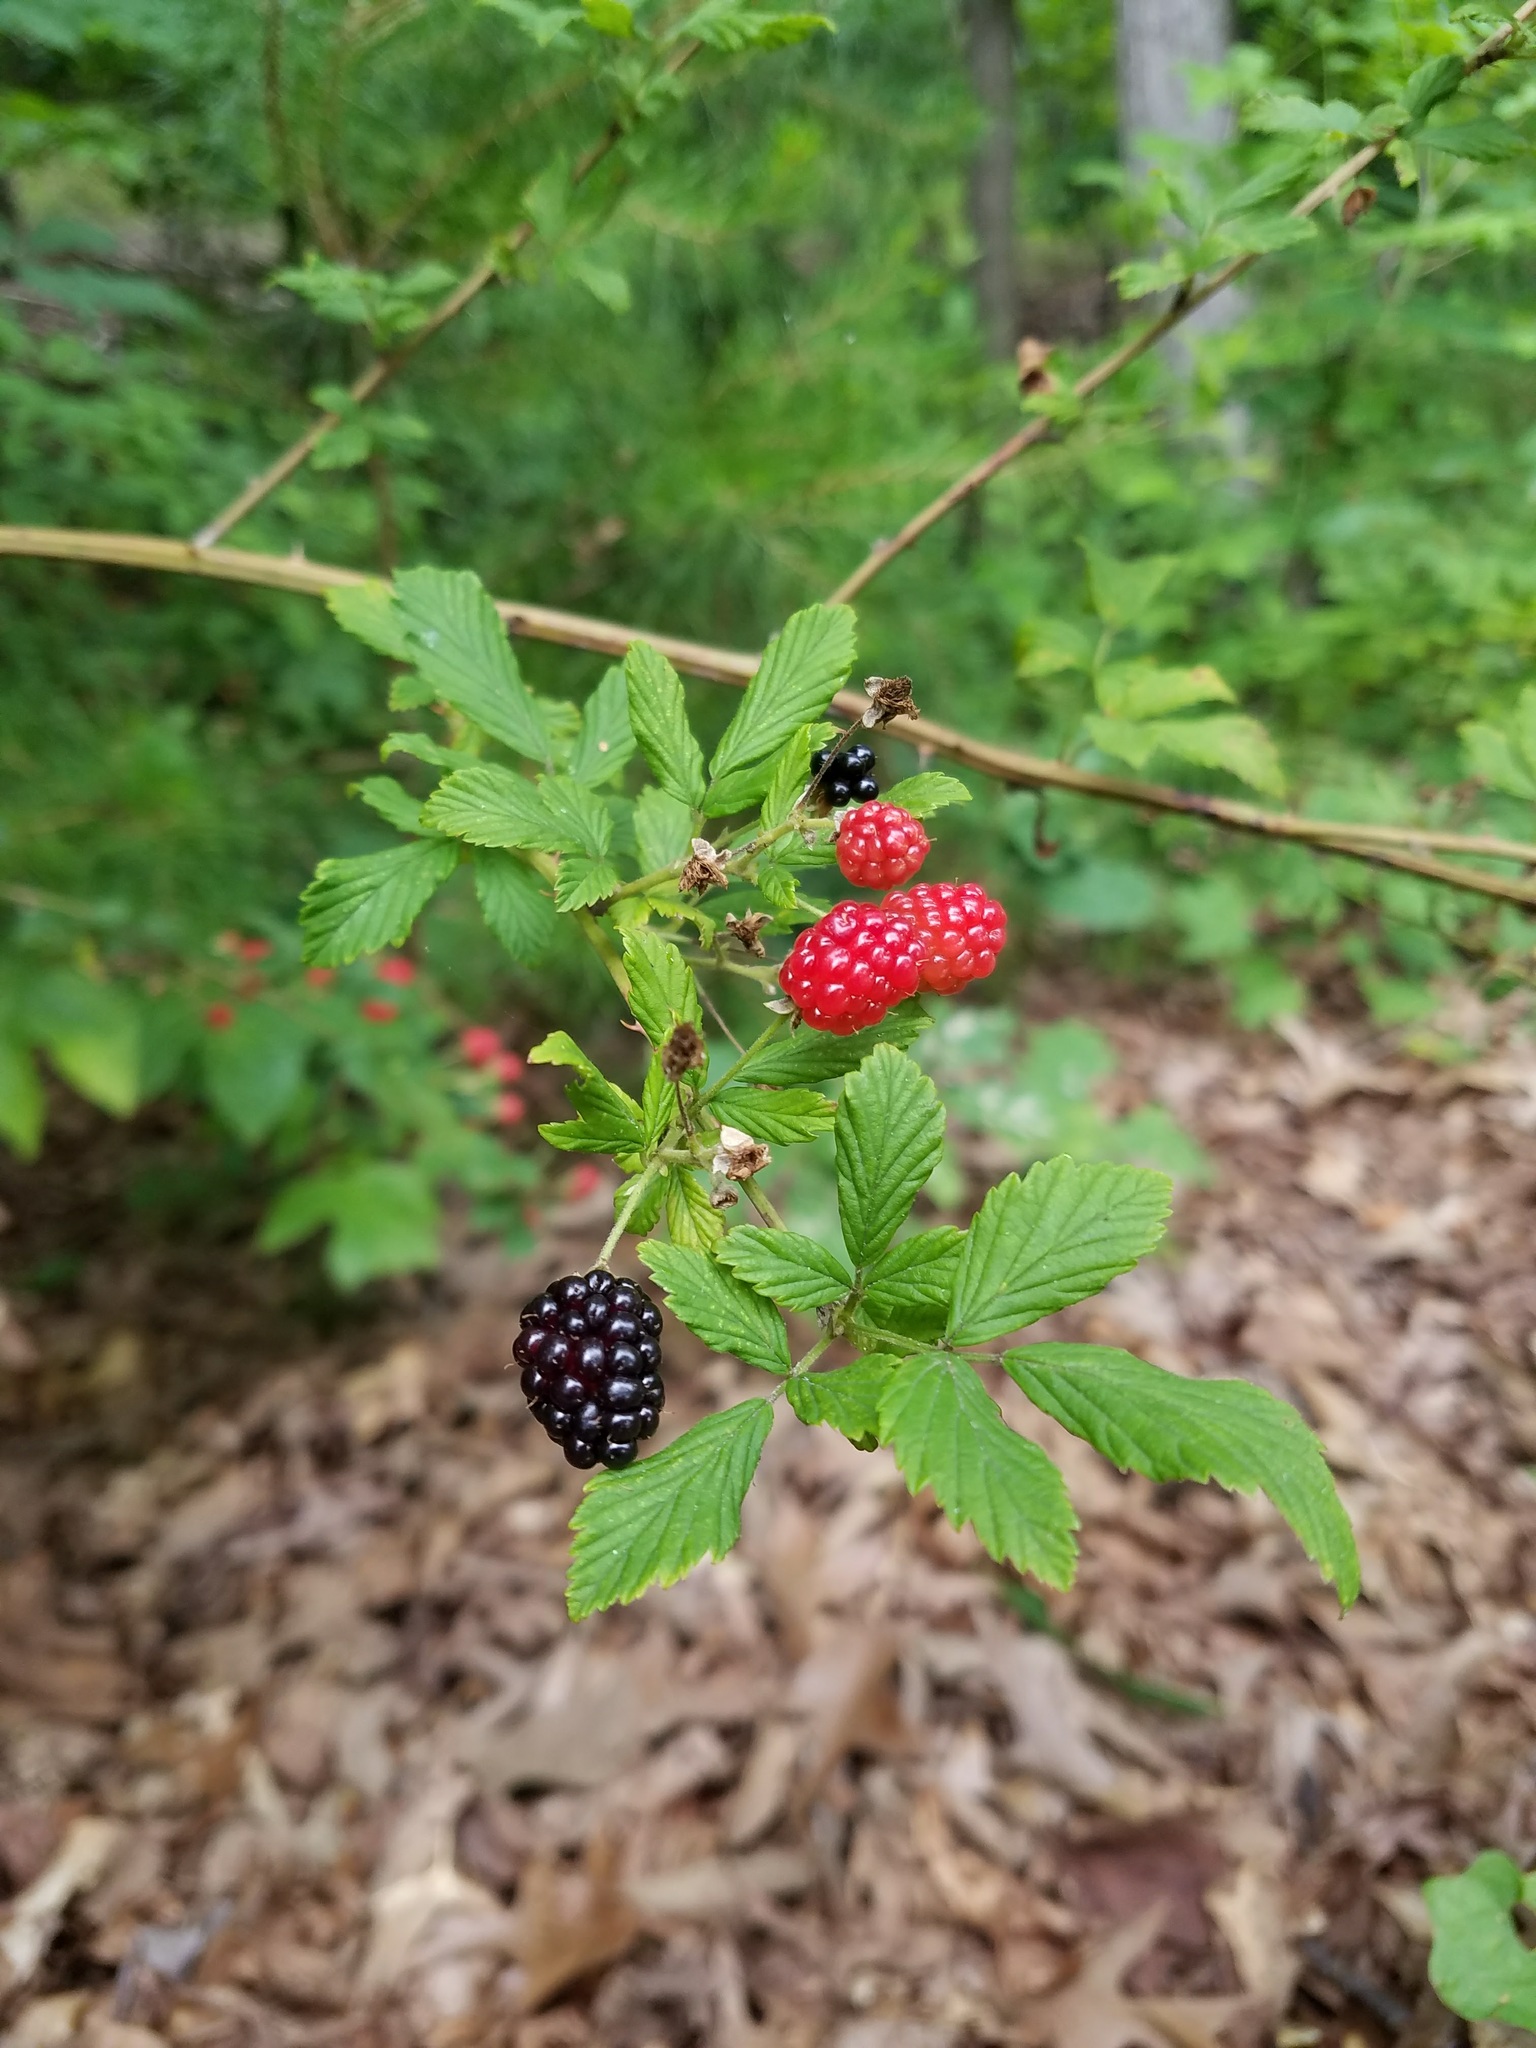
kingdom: Plantae
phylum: Tracheophyta
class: Magnoliopsida
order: Rosales
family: Rosaceae
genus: Rubus
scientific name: Rubus allegheniensis
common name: Allegheny blackberry
